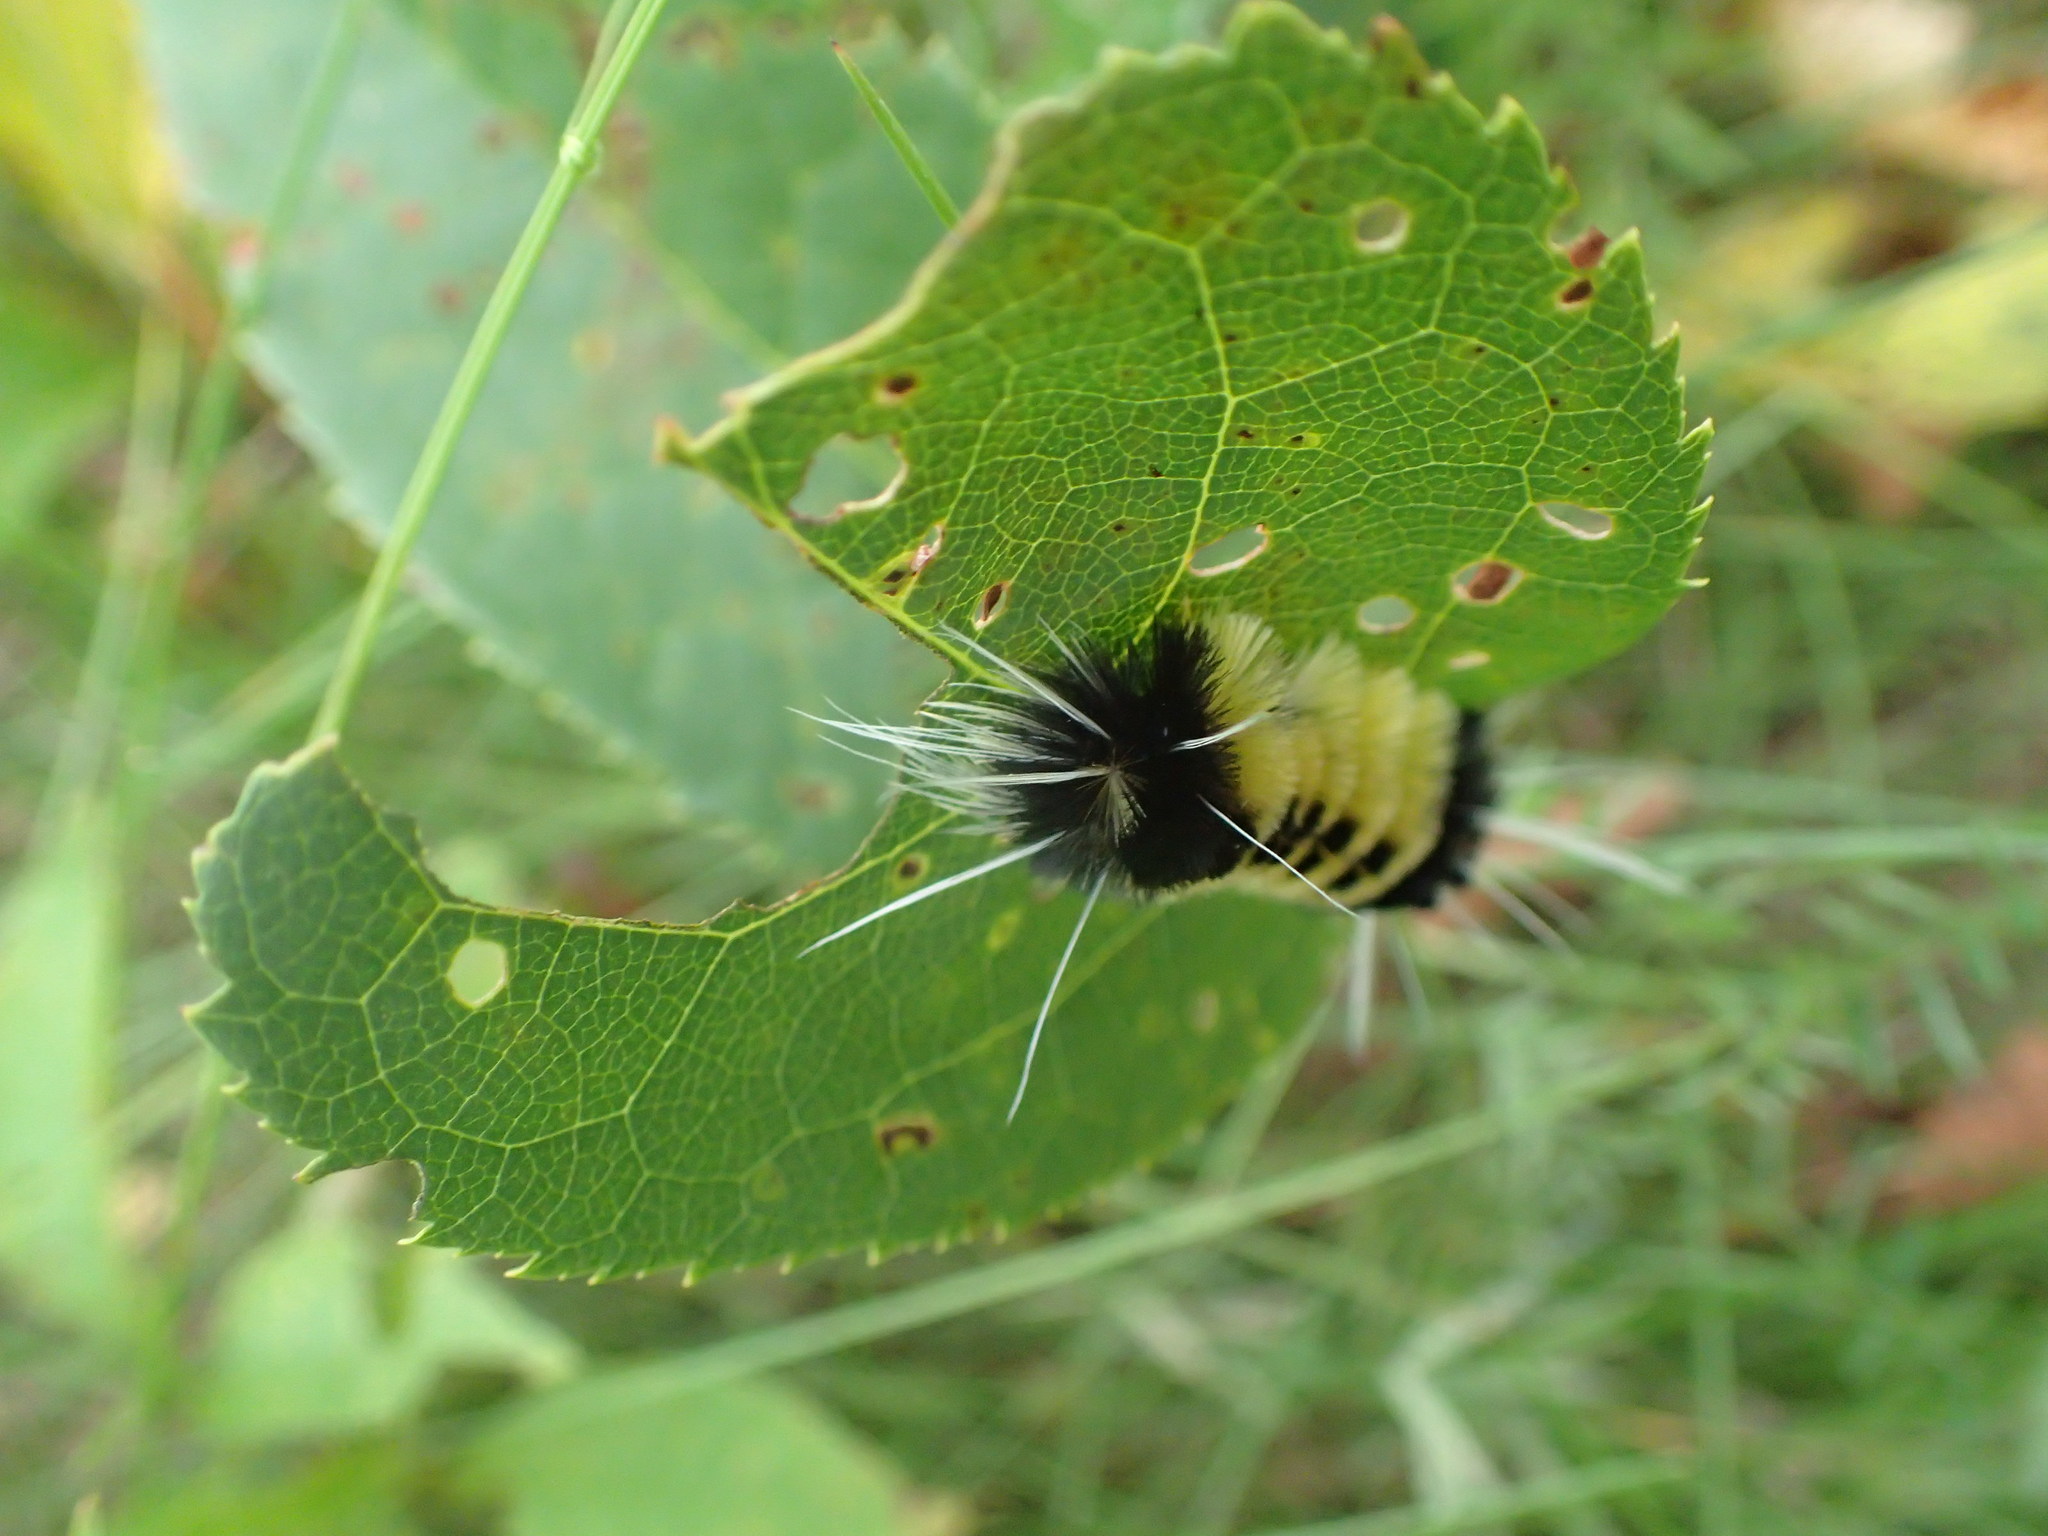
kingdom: Animalia
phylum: Arthropoda
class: Insecta
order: Lepidoptera
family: Erebidae
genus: Lophocampa
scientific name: Lophocampa maculata
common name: Spotted tussock moth
